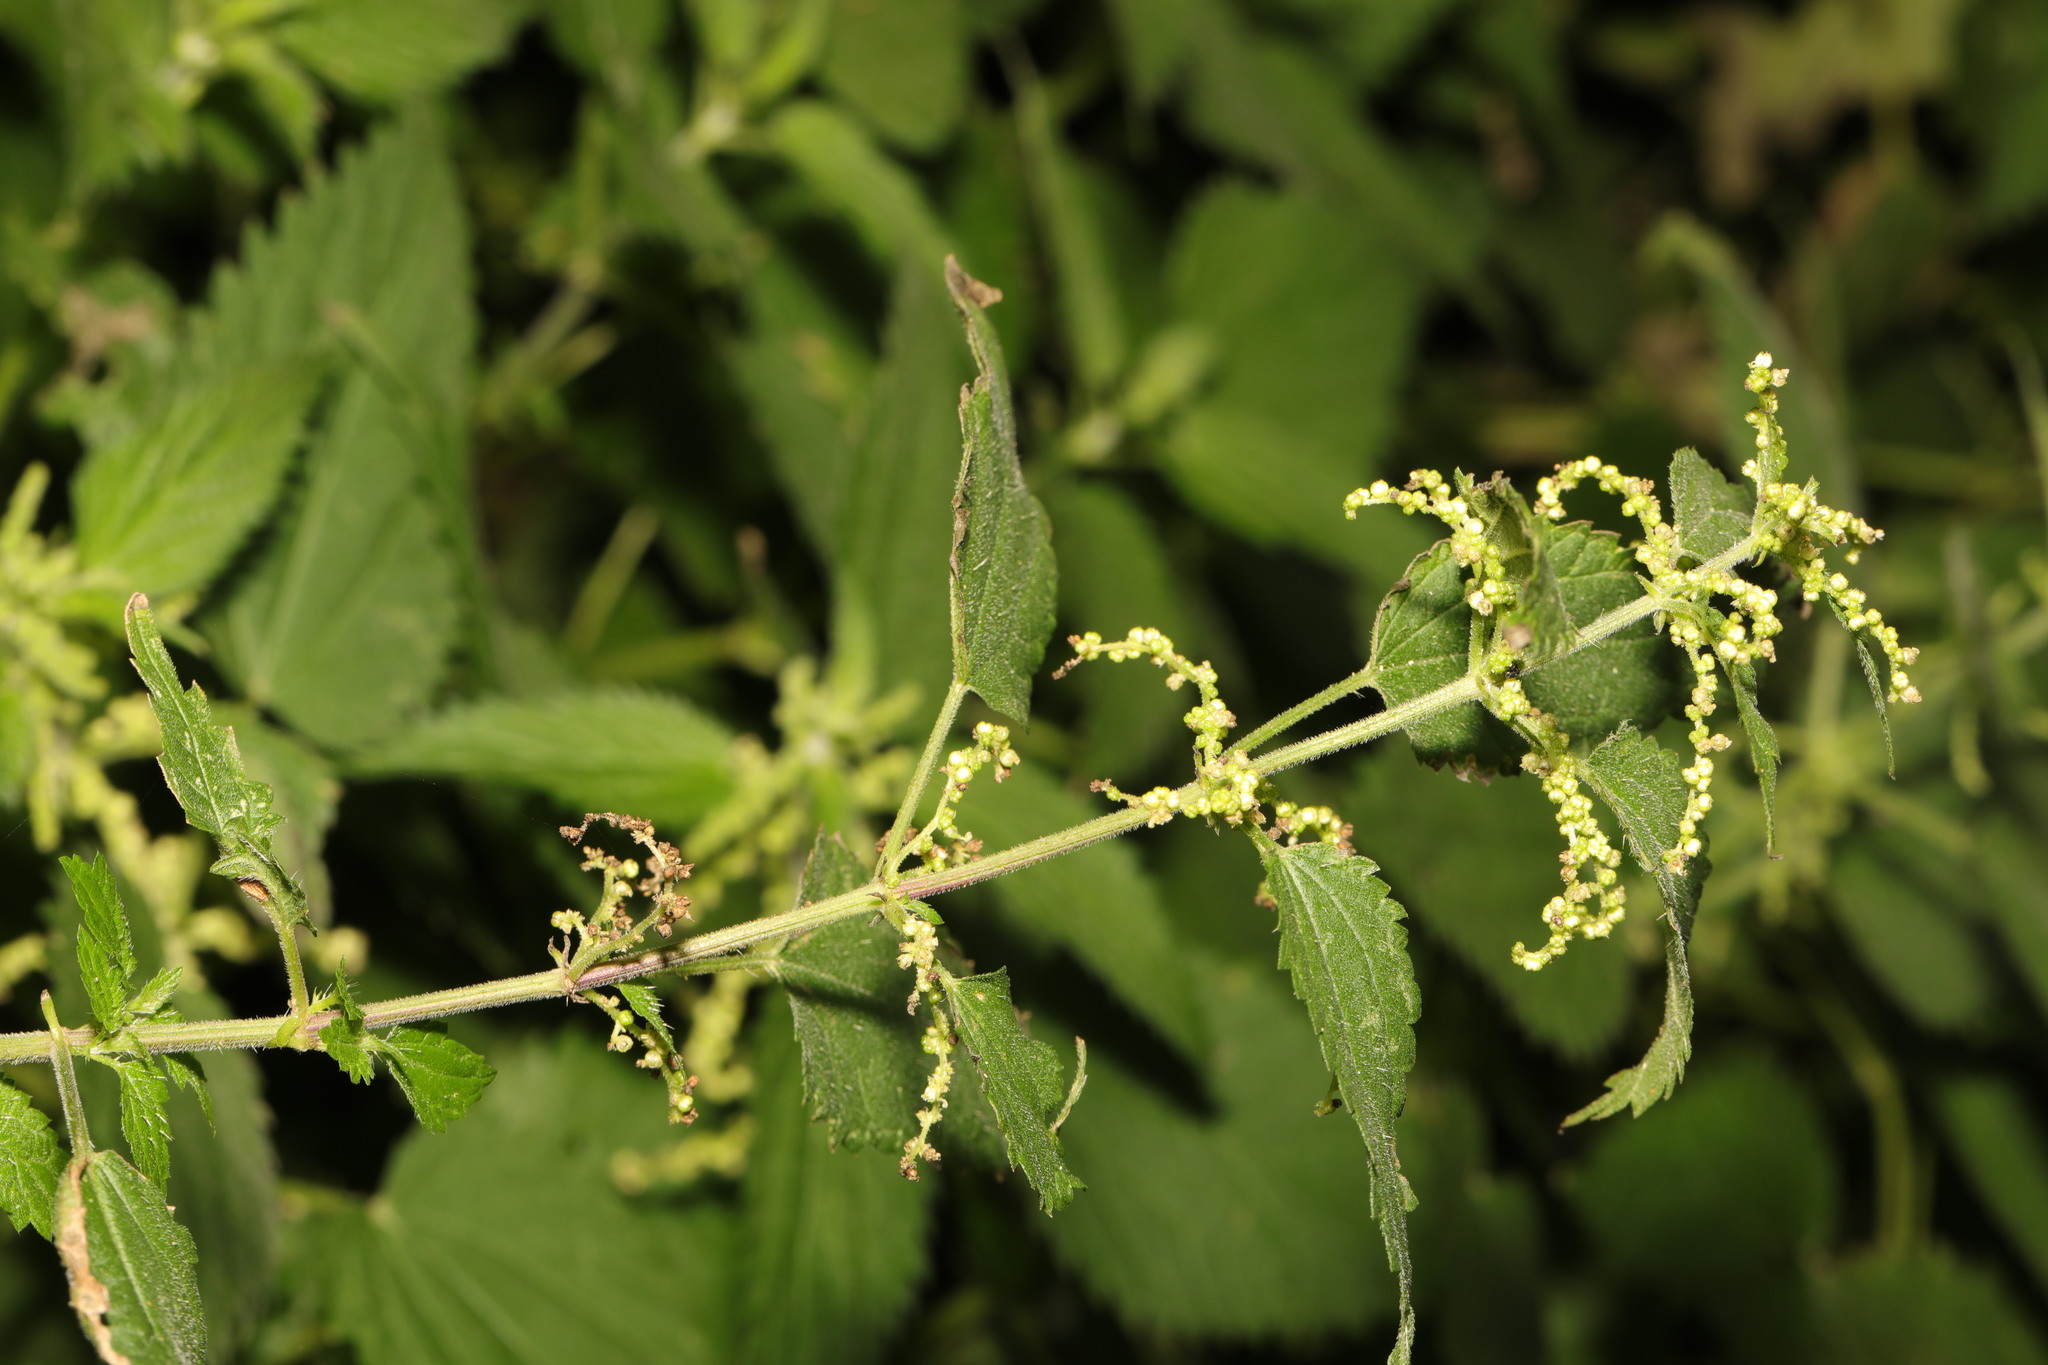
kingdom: Plantae
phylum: Tracheophyta
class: Magnoliopsida
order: Rosales
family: Urticaceae
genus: Urtica
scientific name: Urtica dioica
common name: Common nettle
